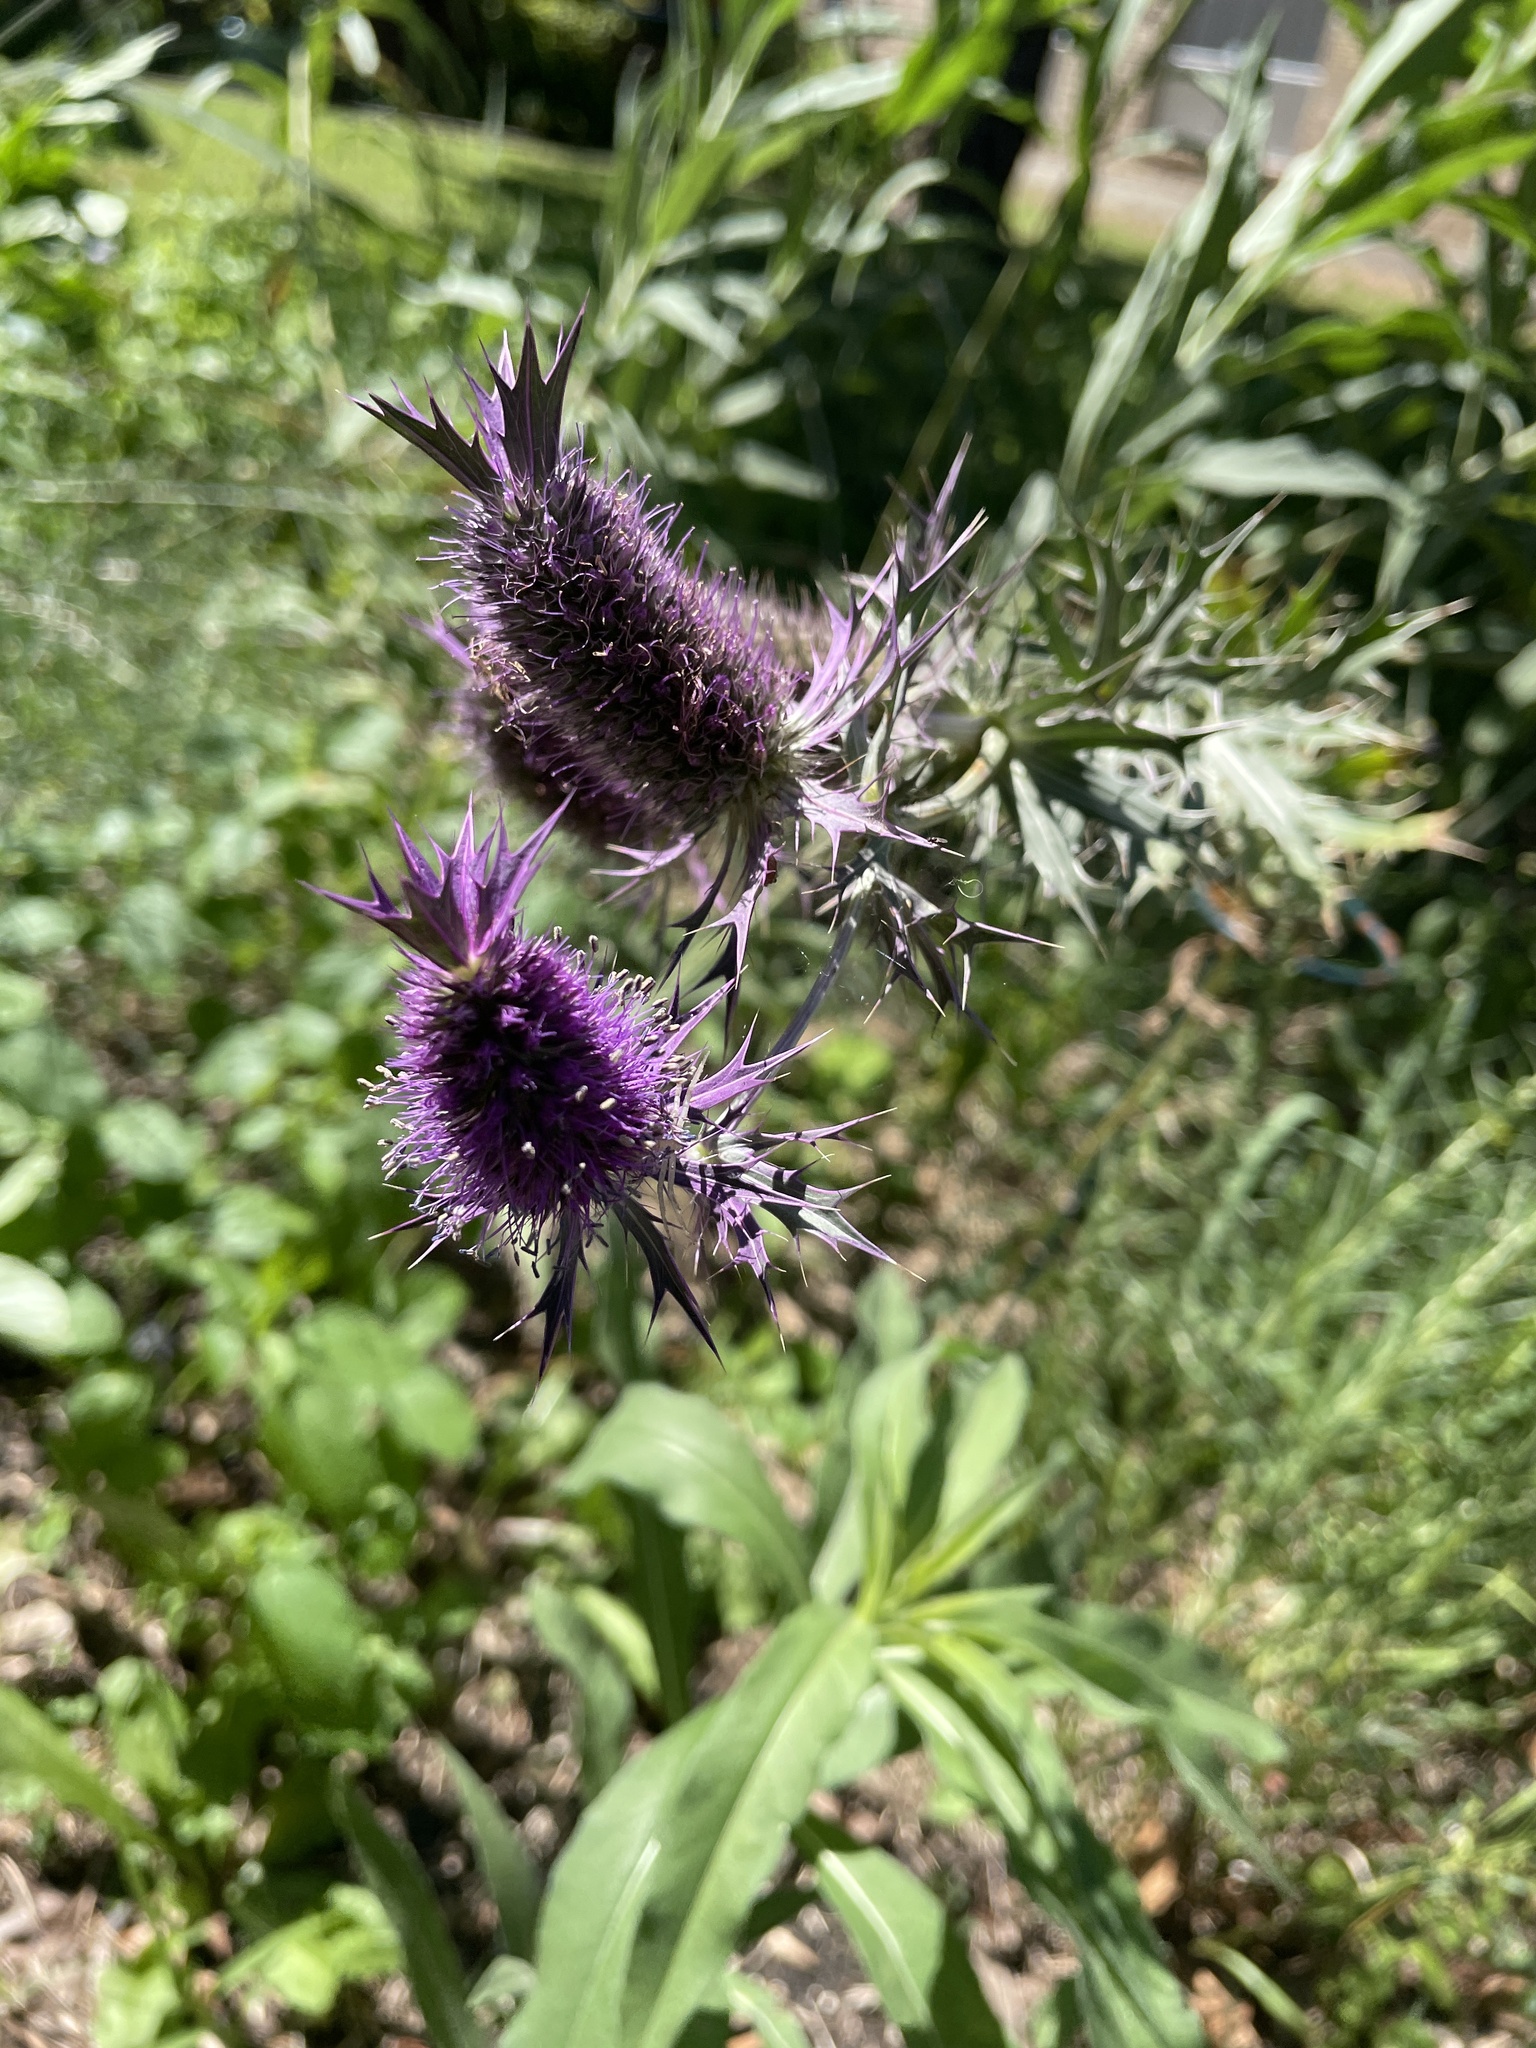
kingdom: Plantae
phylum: Tracheophyta
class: Magnoliopsida
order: Apiales
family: Apiaceae
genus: Eryngium
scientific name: Eryngium leavenworthii
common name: Leavenworth's eryngo
